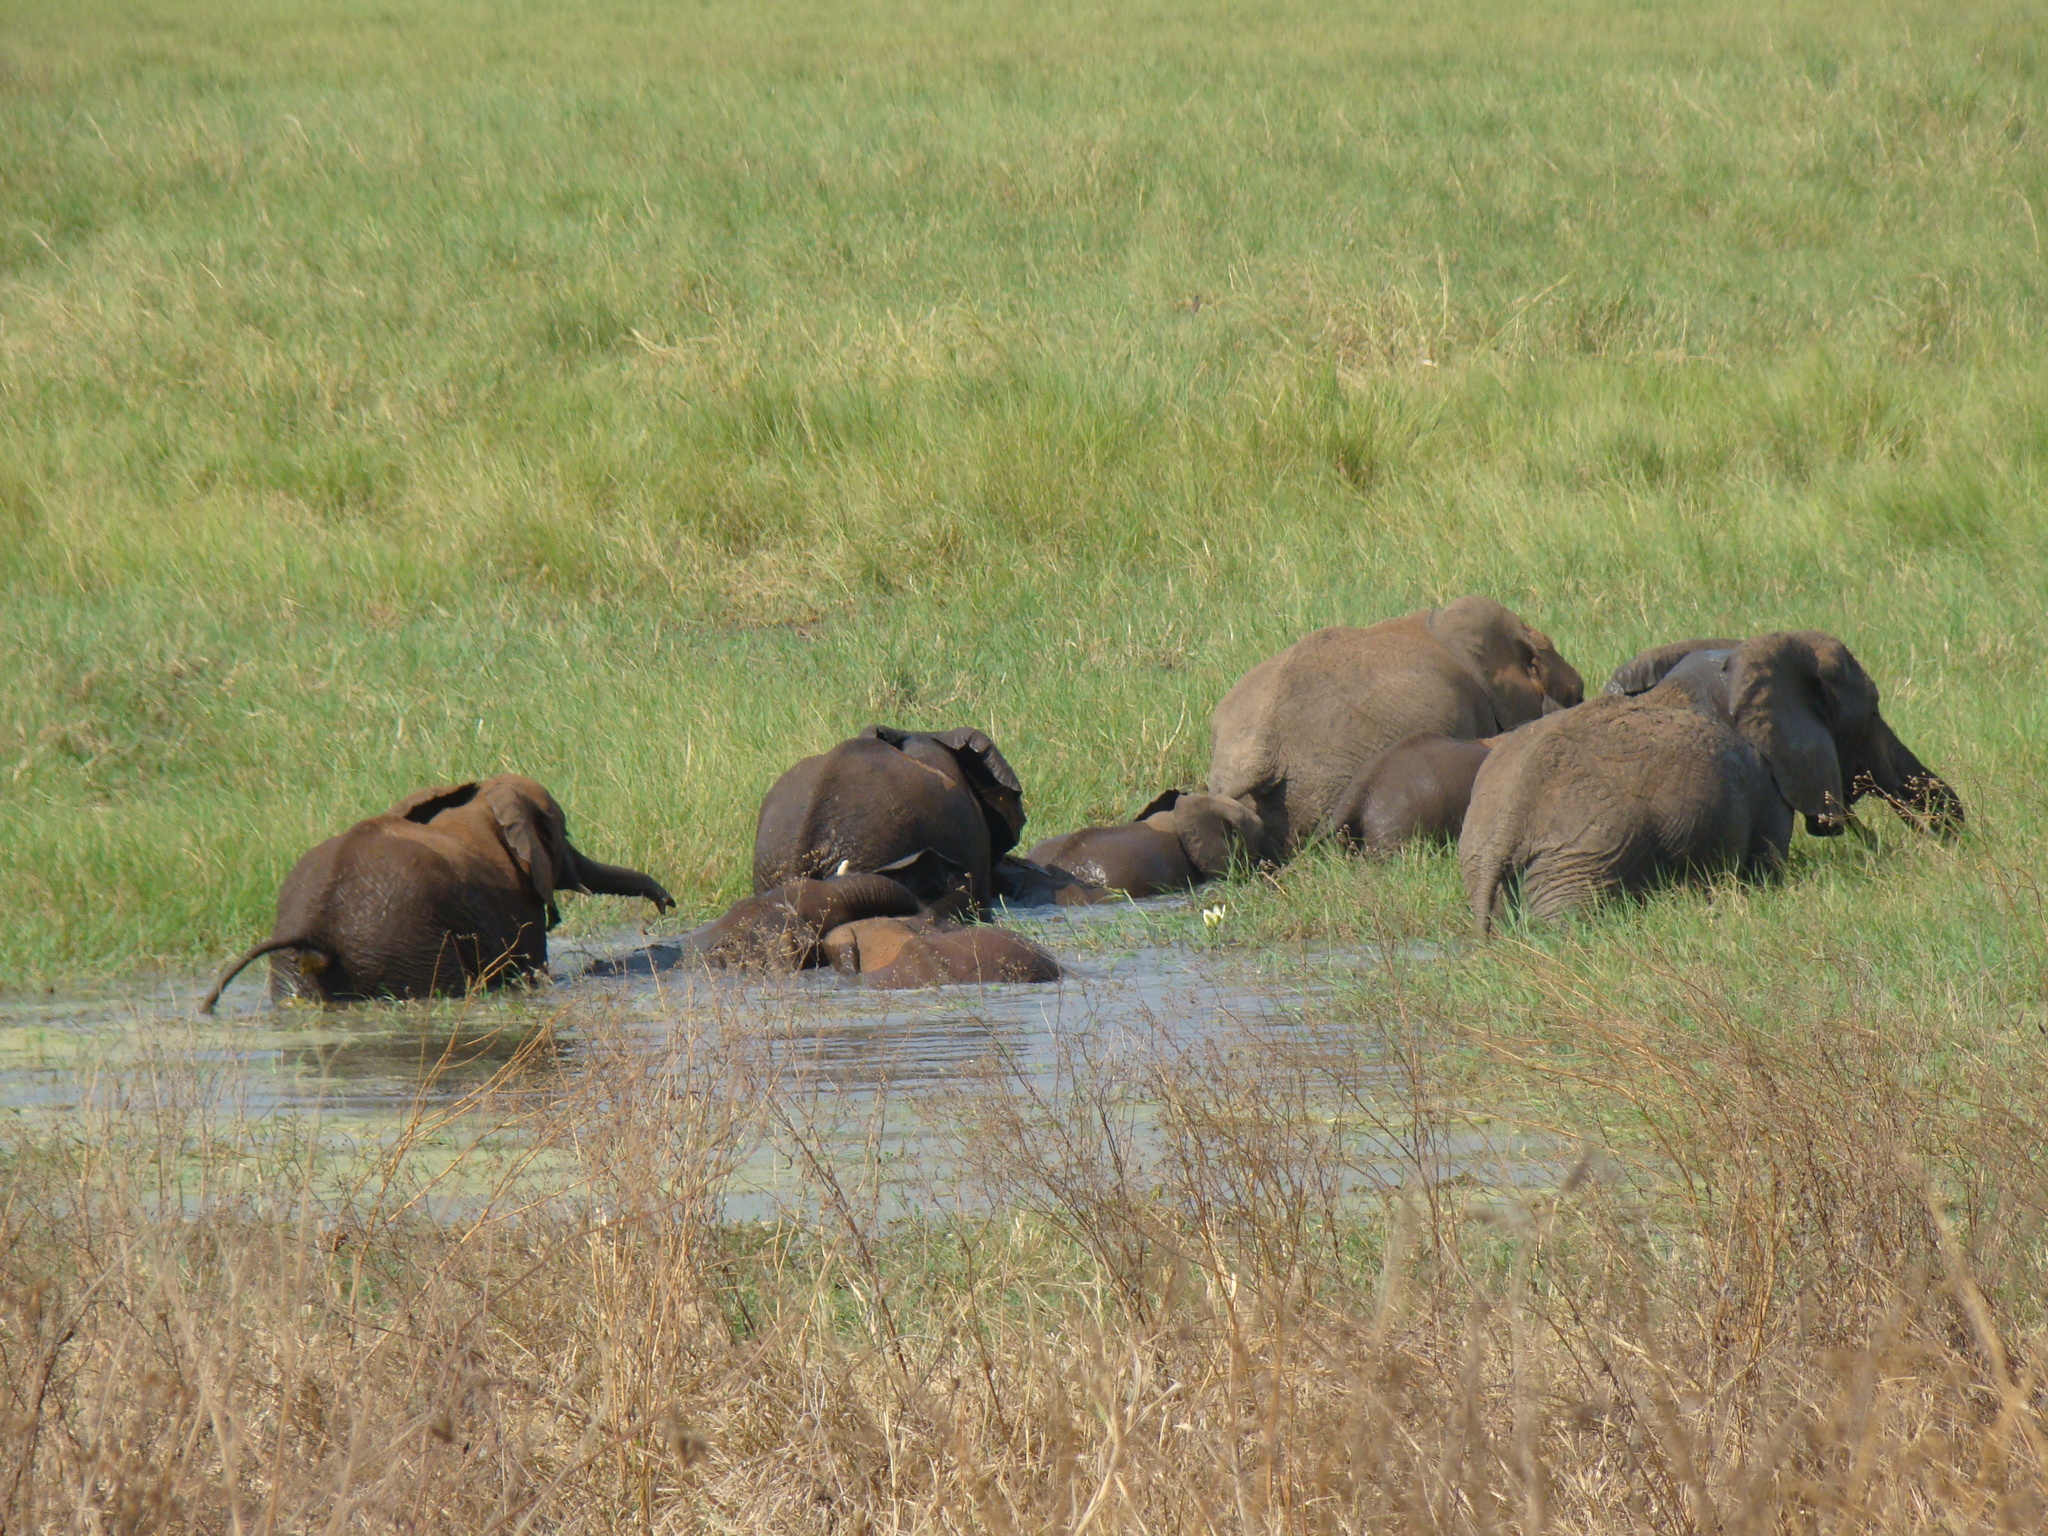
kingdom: Animalia
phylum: Chordata
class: Mammalia
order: Proboscidea
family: Elephantidae
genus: Loxodonta
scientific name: Loxodonta africana
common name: African elephant
